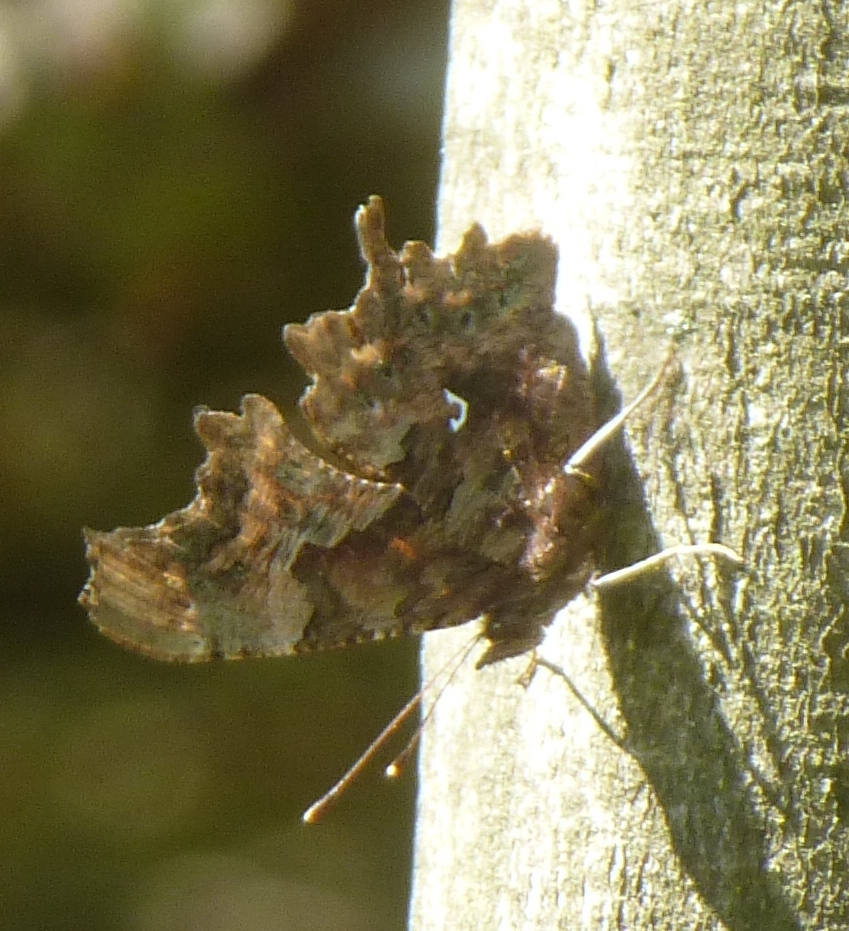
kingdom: Animalia
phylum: Arthropoda
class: Insecta
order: Lepidoptera
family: Nymphalidae
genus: Polygonia
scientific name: Polygonia c-album
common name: Comma
